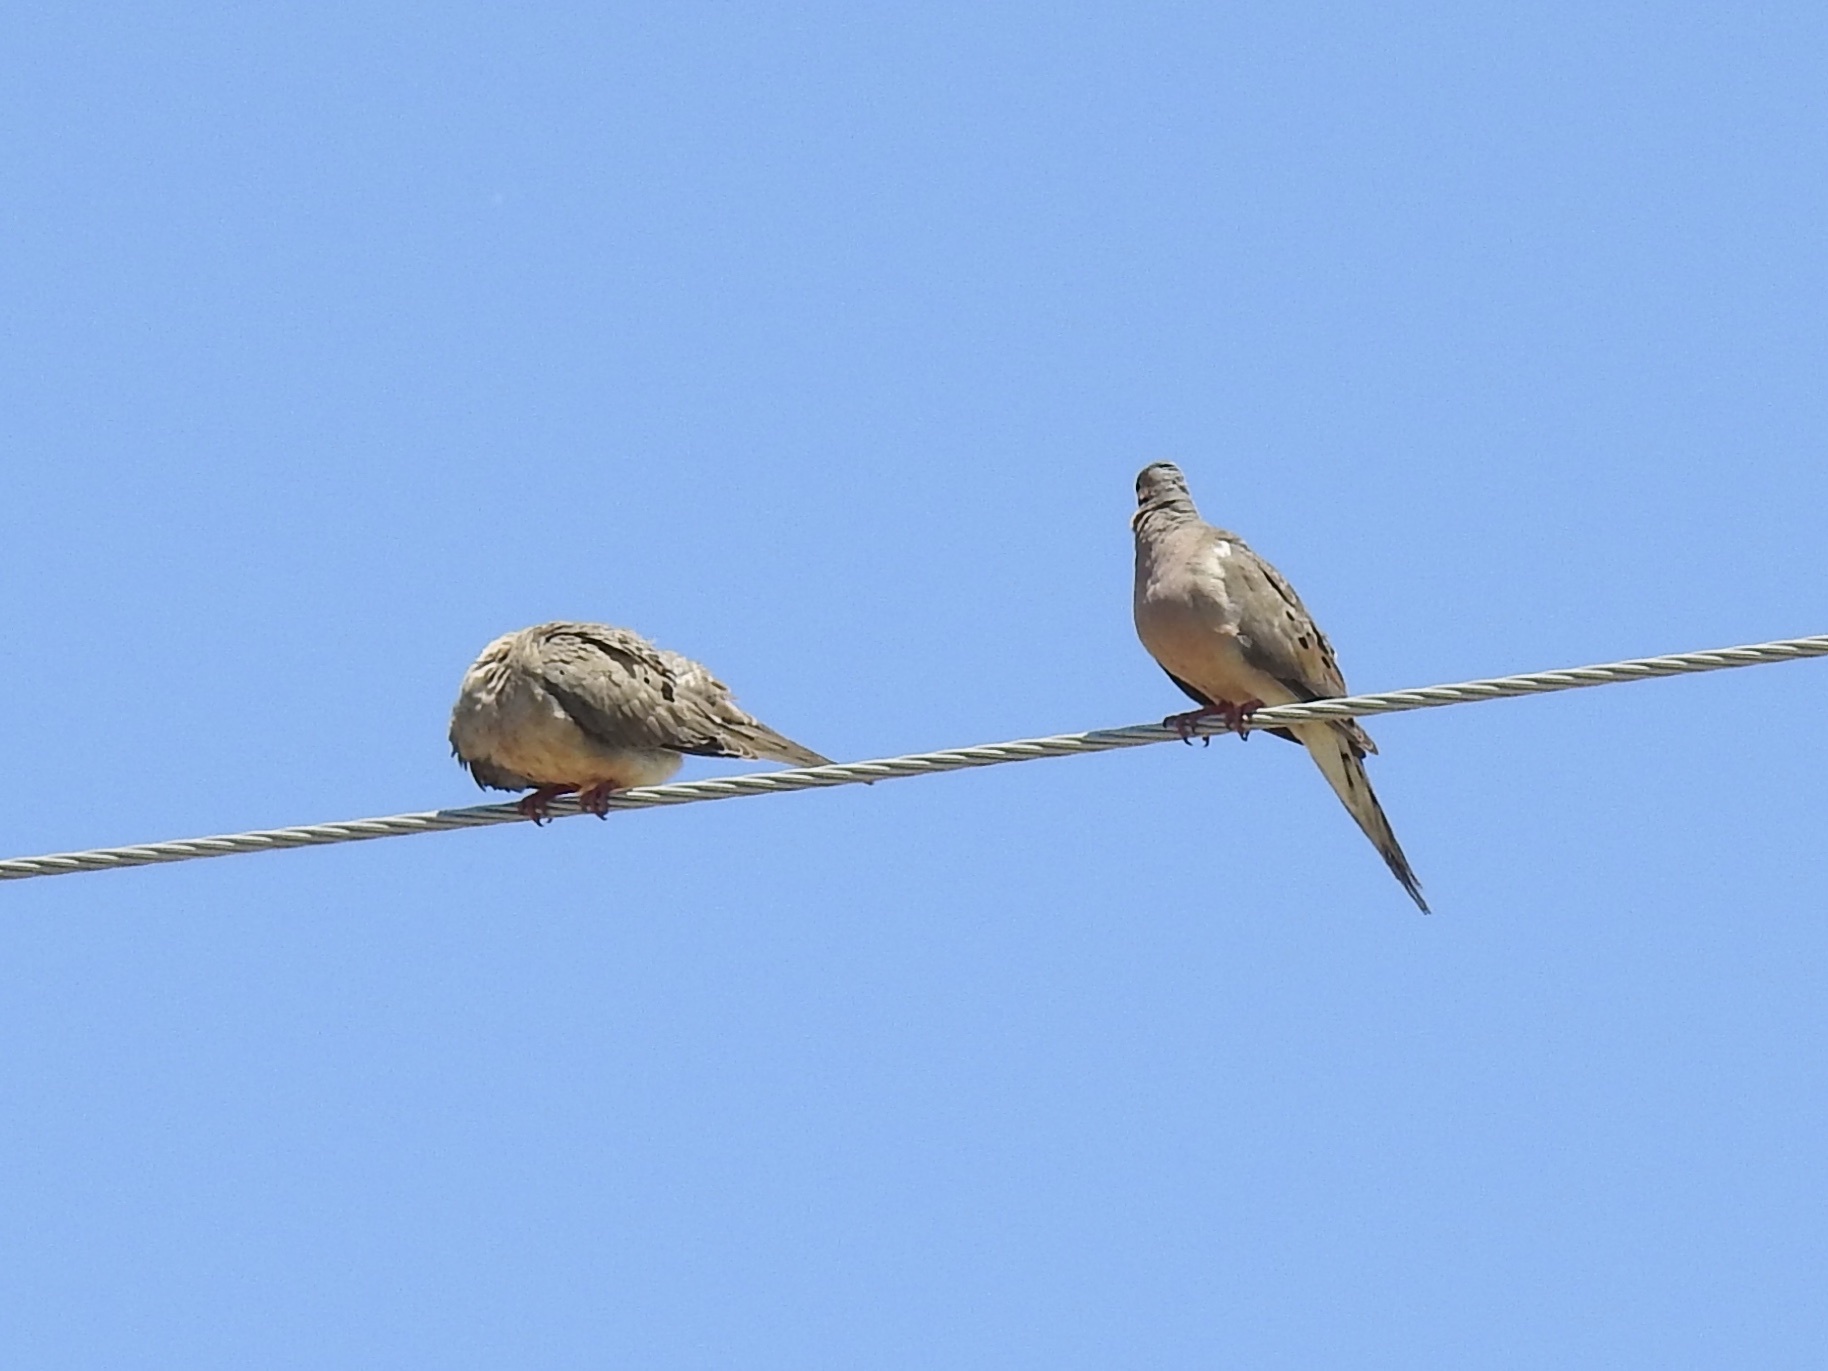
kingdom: Animalia
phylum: Chordata
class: Aves
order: Columbiformes
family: Columbidae
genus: Zenaida
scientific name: Zenaida macroura
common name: Mourning dove
